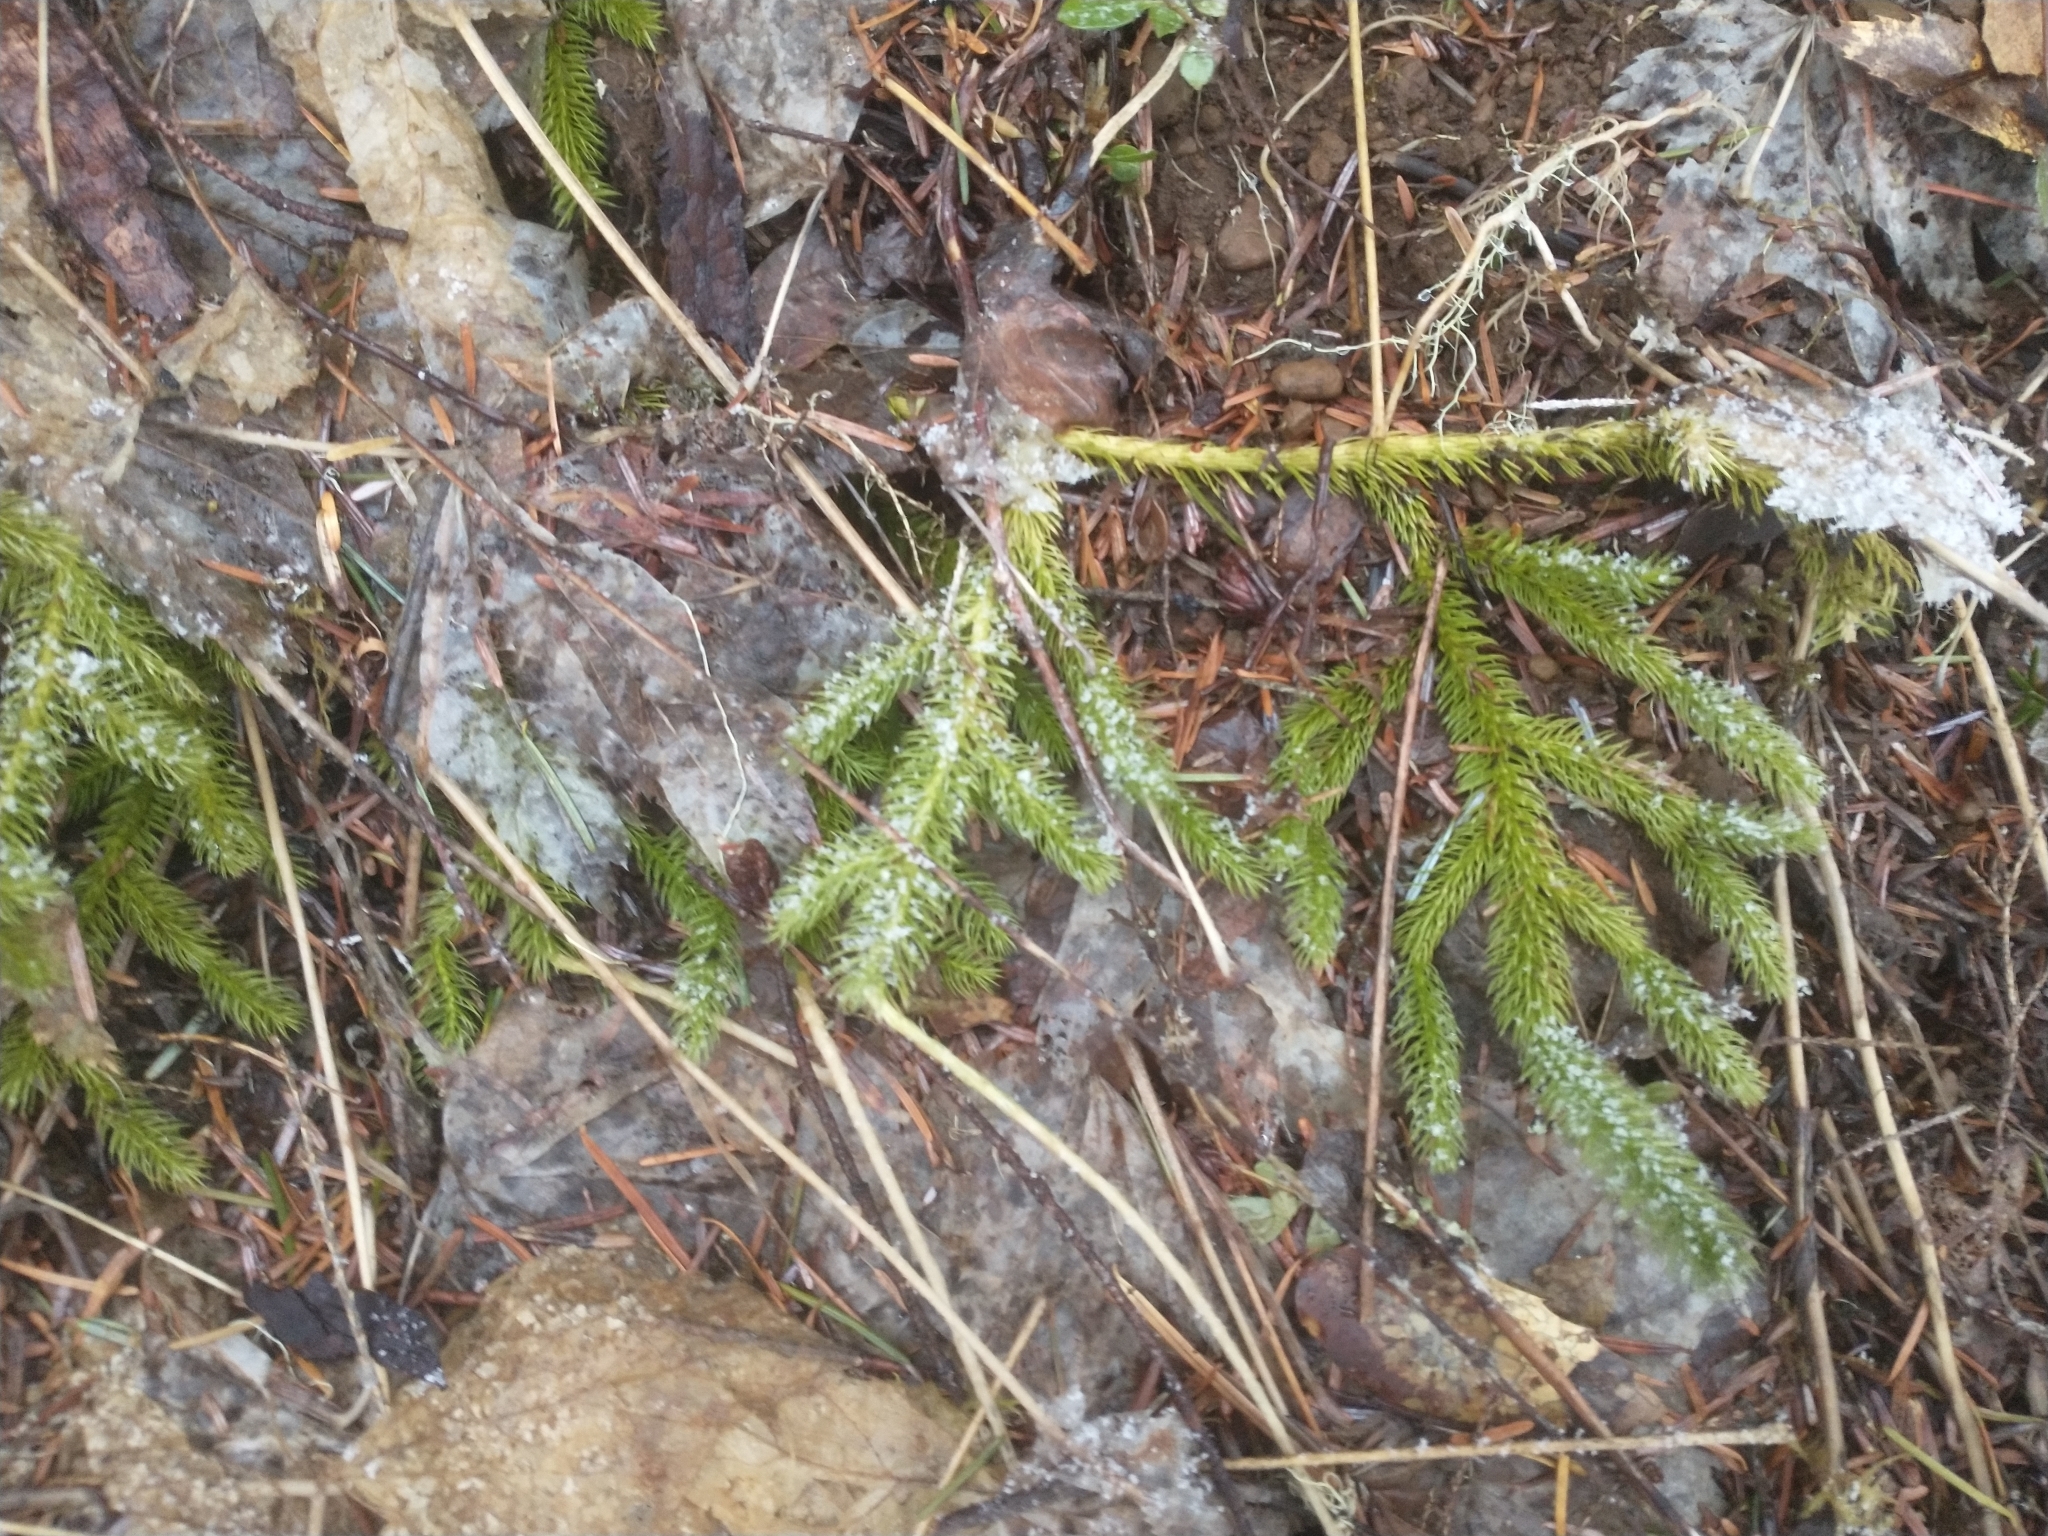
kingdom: Plantae
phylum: Tracheophyta
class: Lycopodiopsida
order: Lycopodiales
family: Lycopodiaceae
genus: Lycopodium
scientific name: Lycopodium clavatum
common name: Stag's-horn clubmoss
